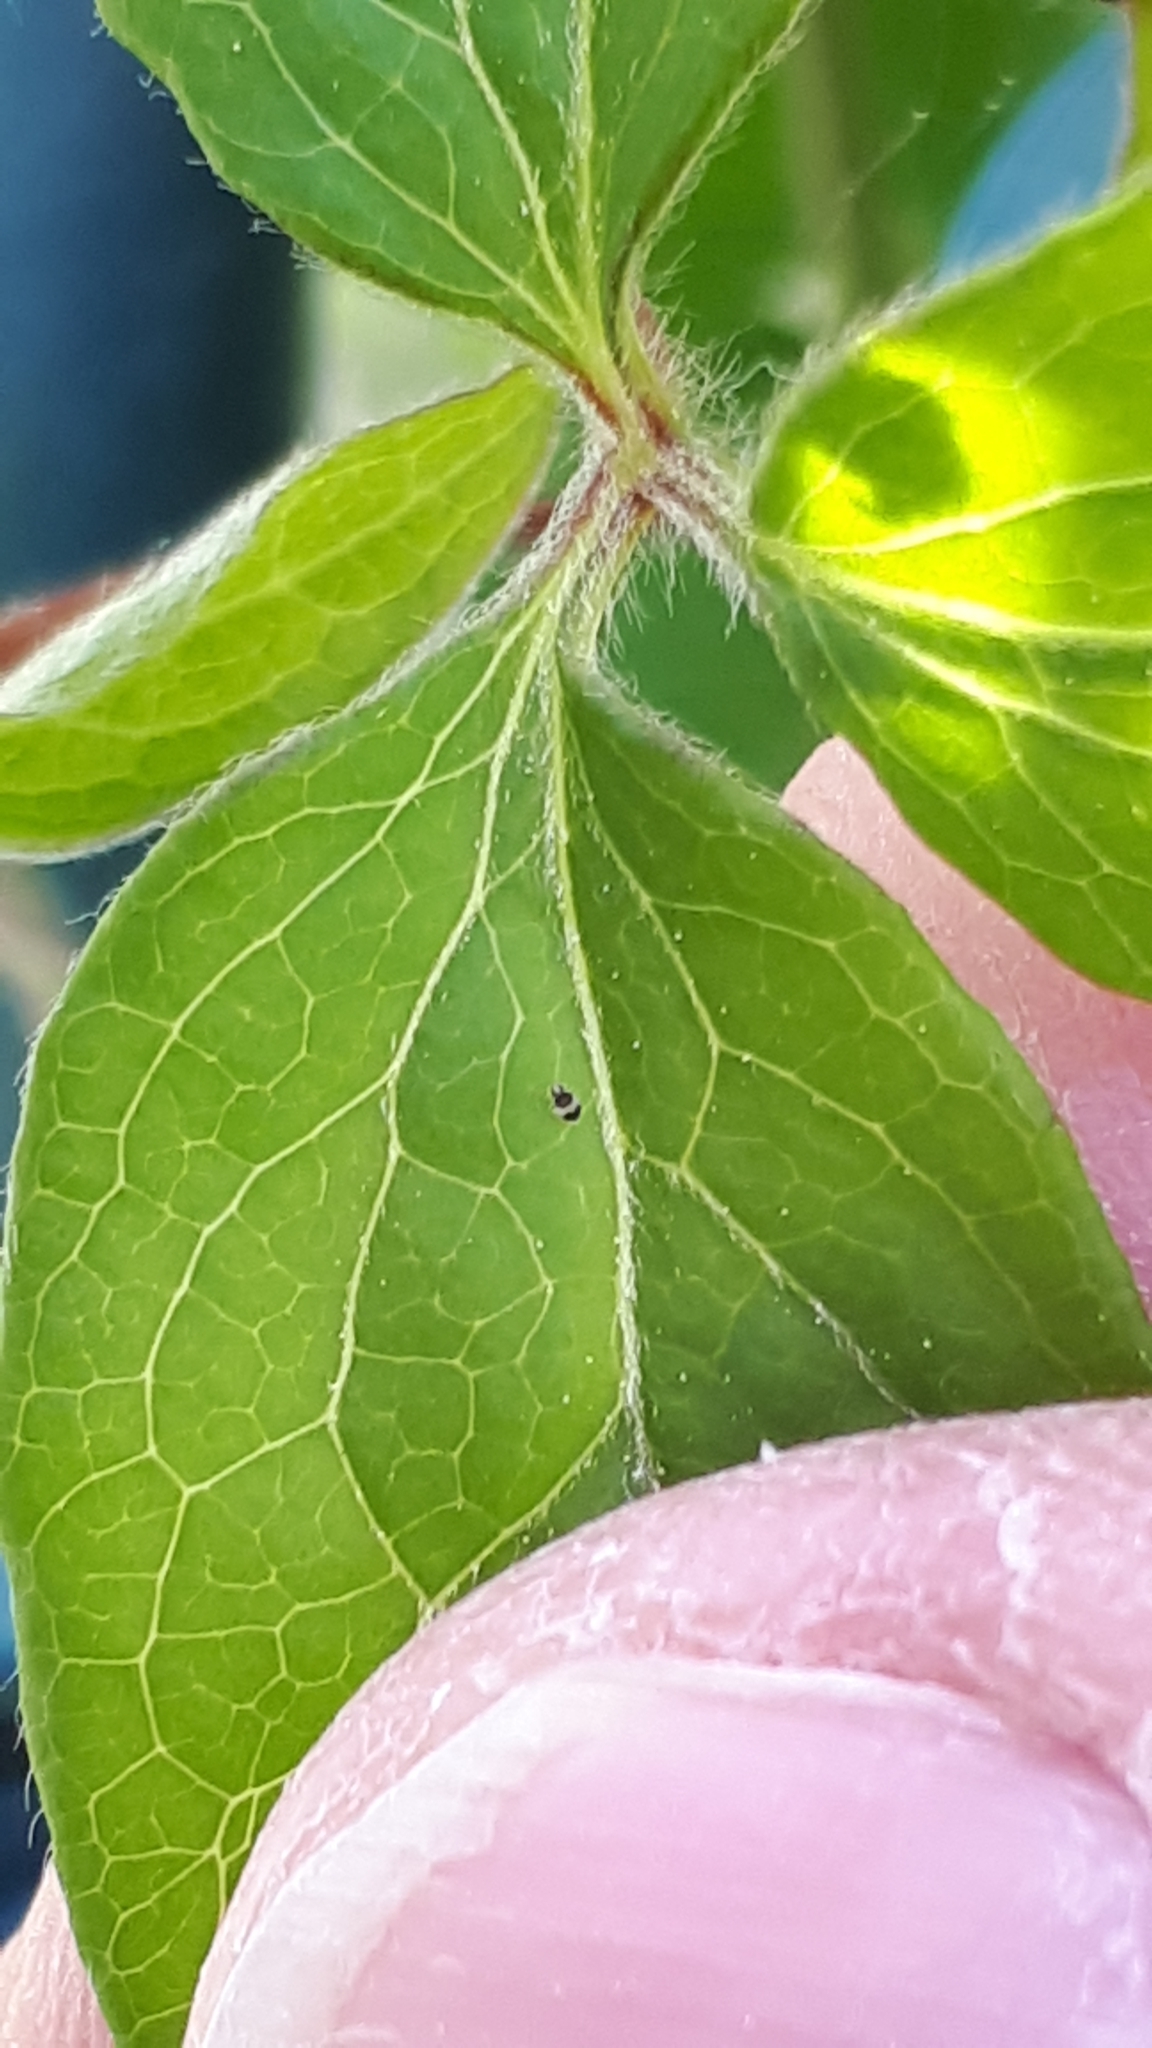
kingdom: Animalia
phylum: Arthropoda
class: Collembola
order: Symphypleona
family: Bourletiellidae
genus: Deuterosminthurus
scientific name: Deuterosminthurus bicinctus
